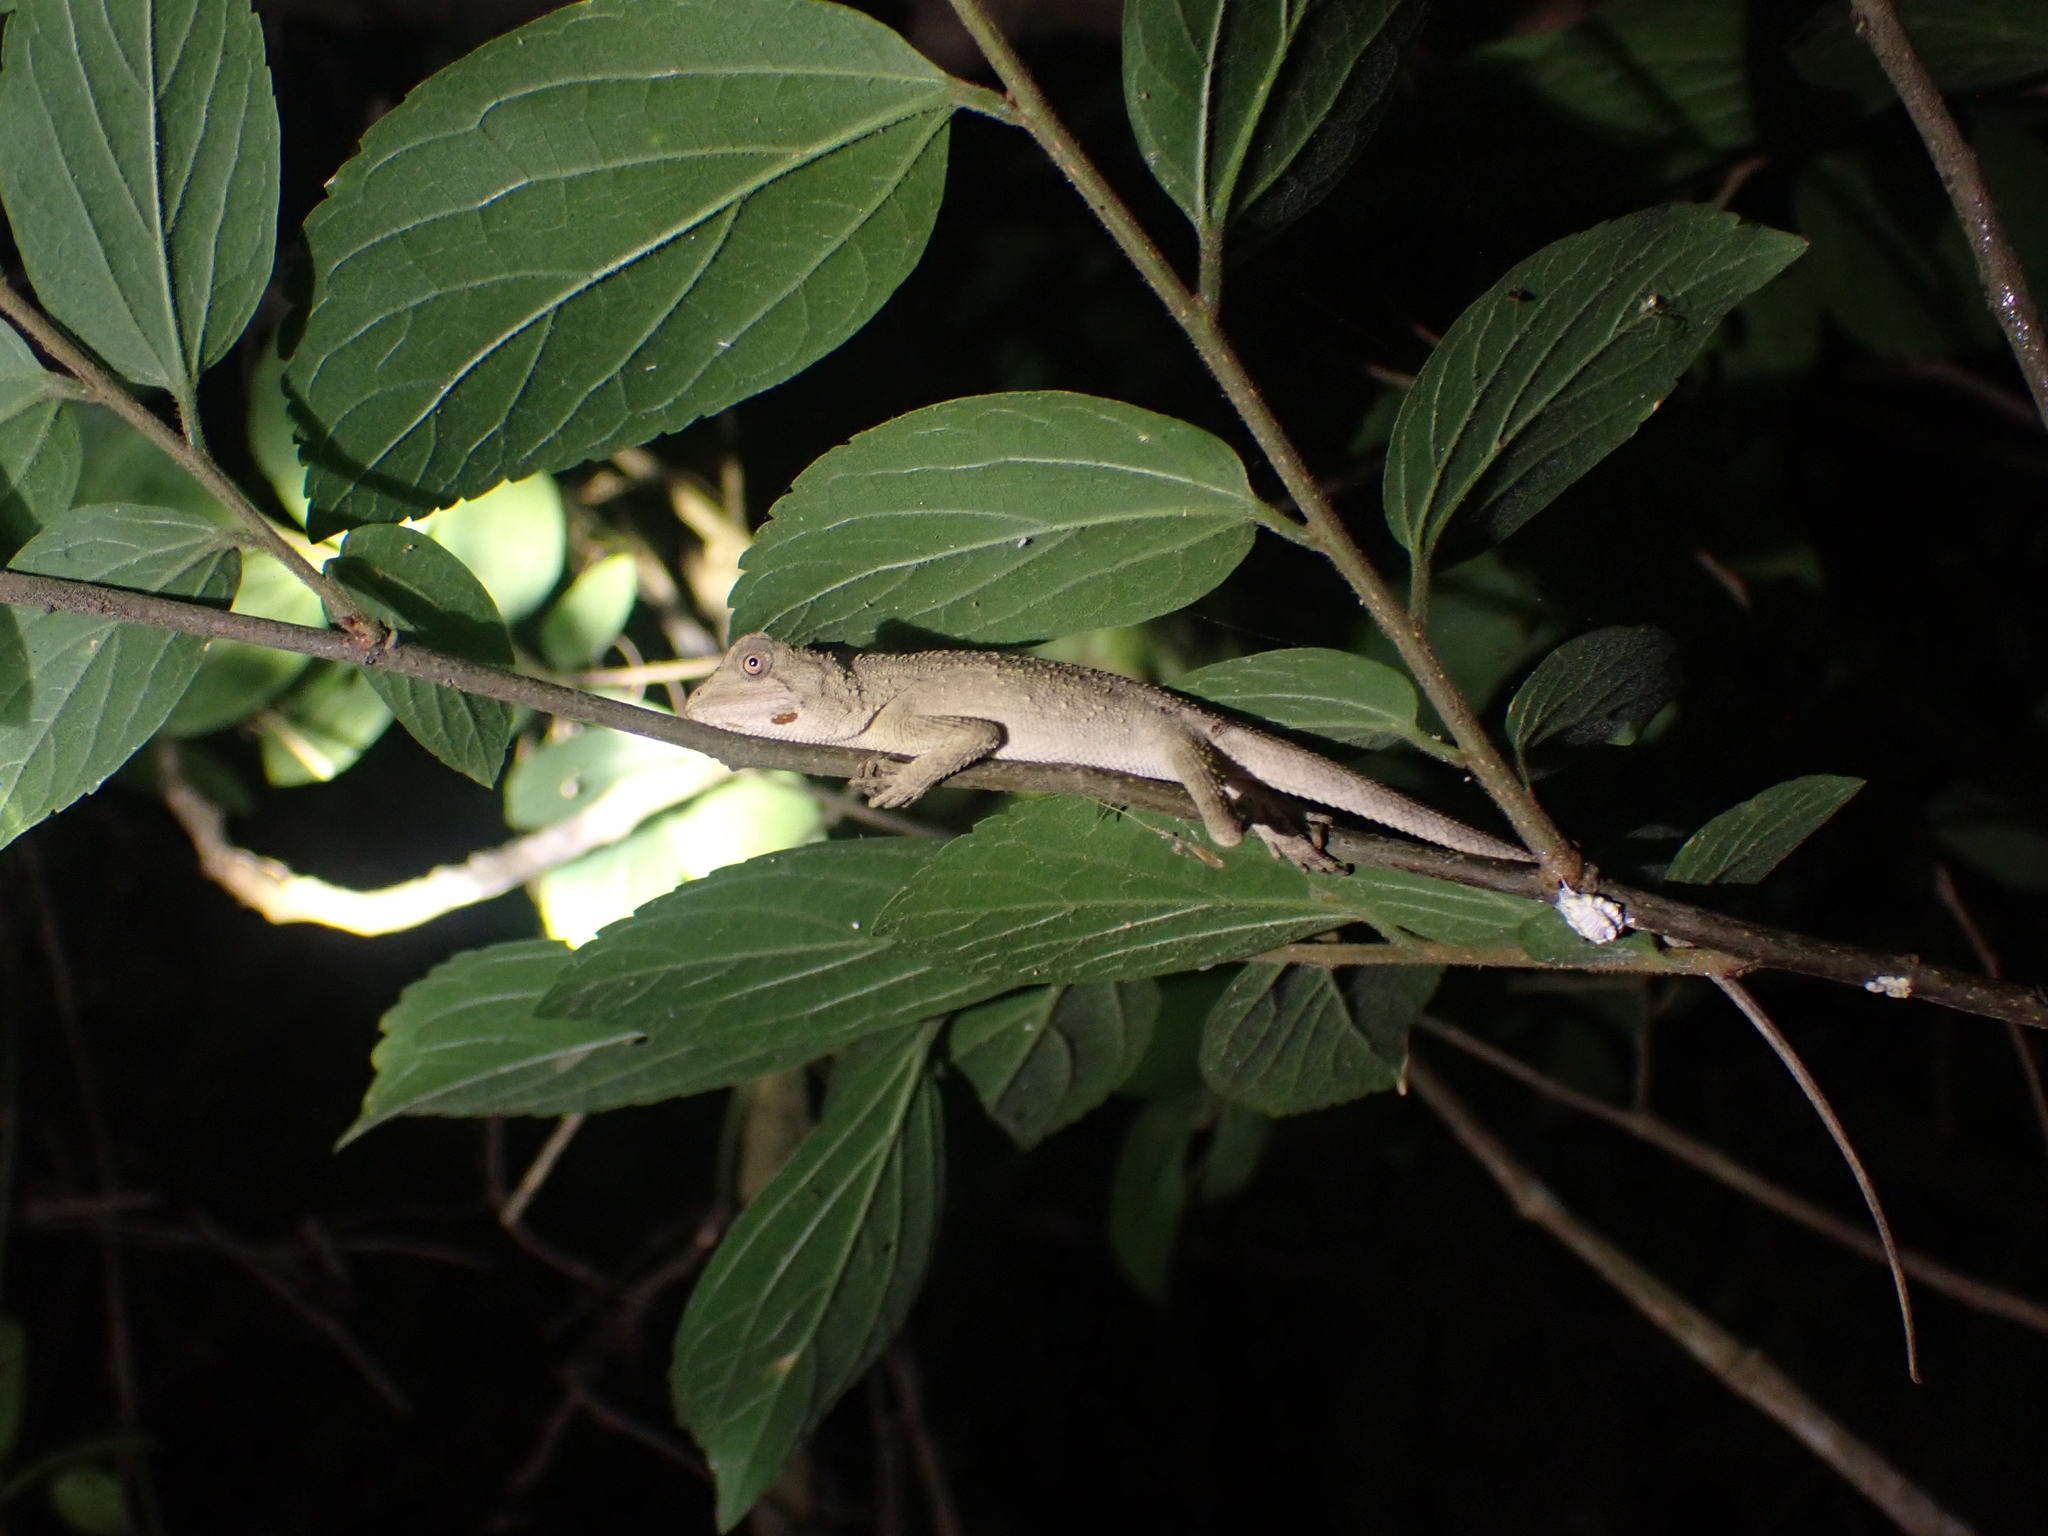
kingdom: Animalia
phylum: Chordata
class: Squamata
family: Agamidae
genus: Diploderma
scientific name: Diploderma swinhonis
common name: Taiwan japalure
